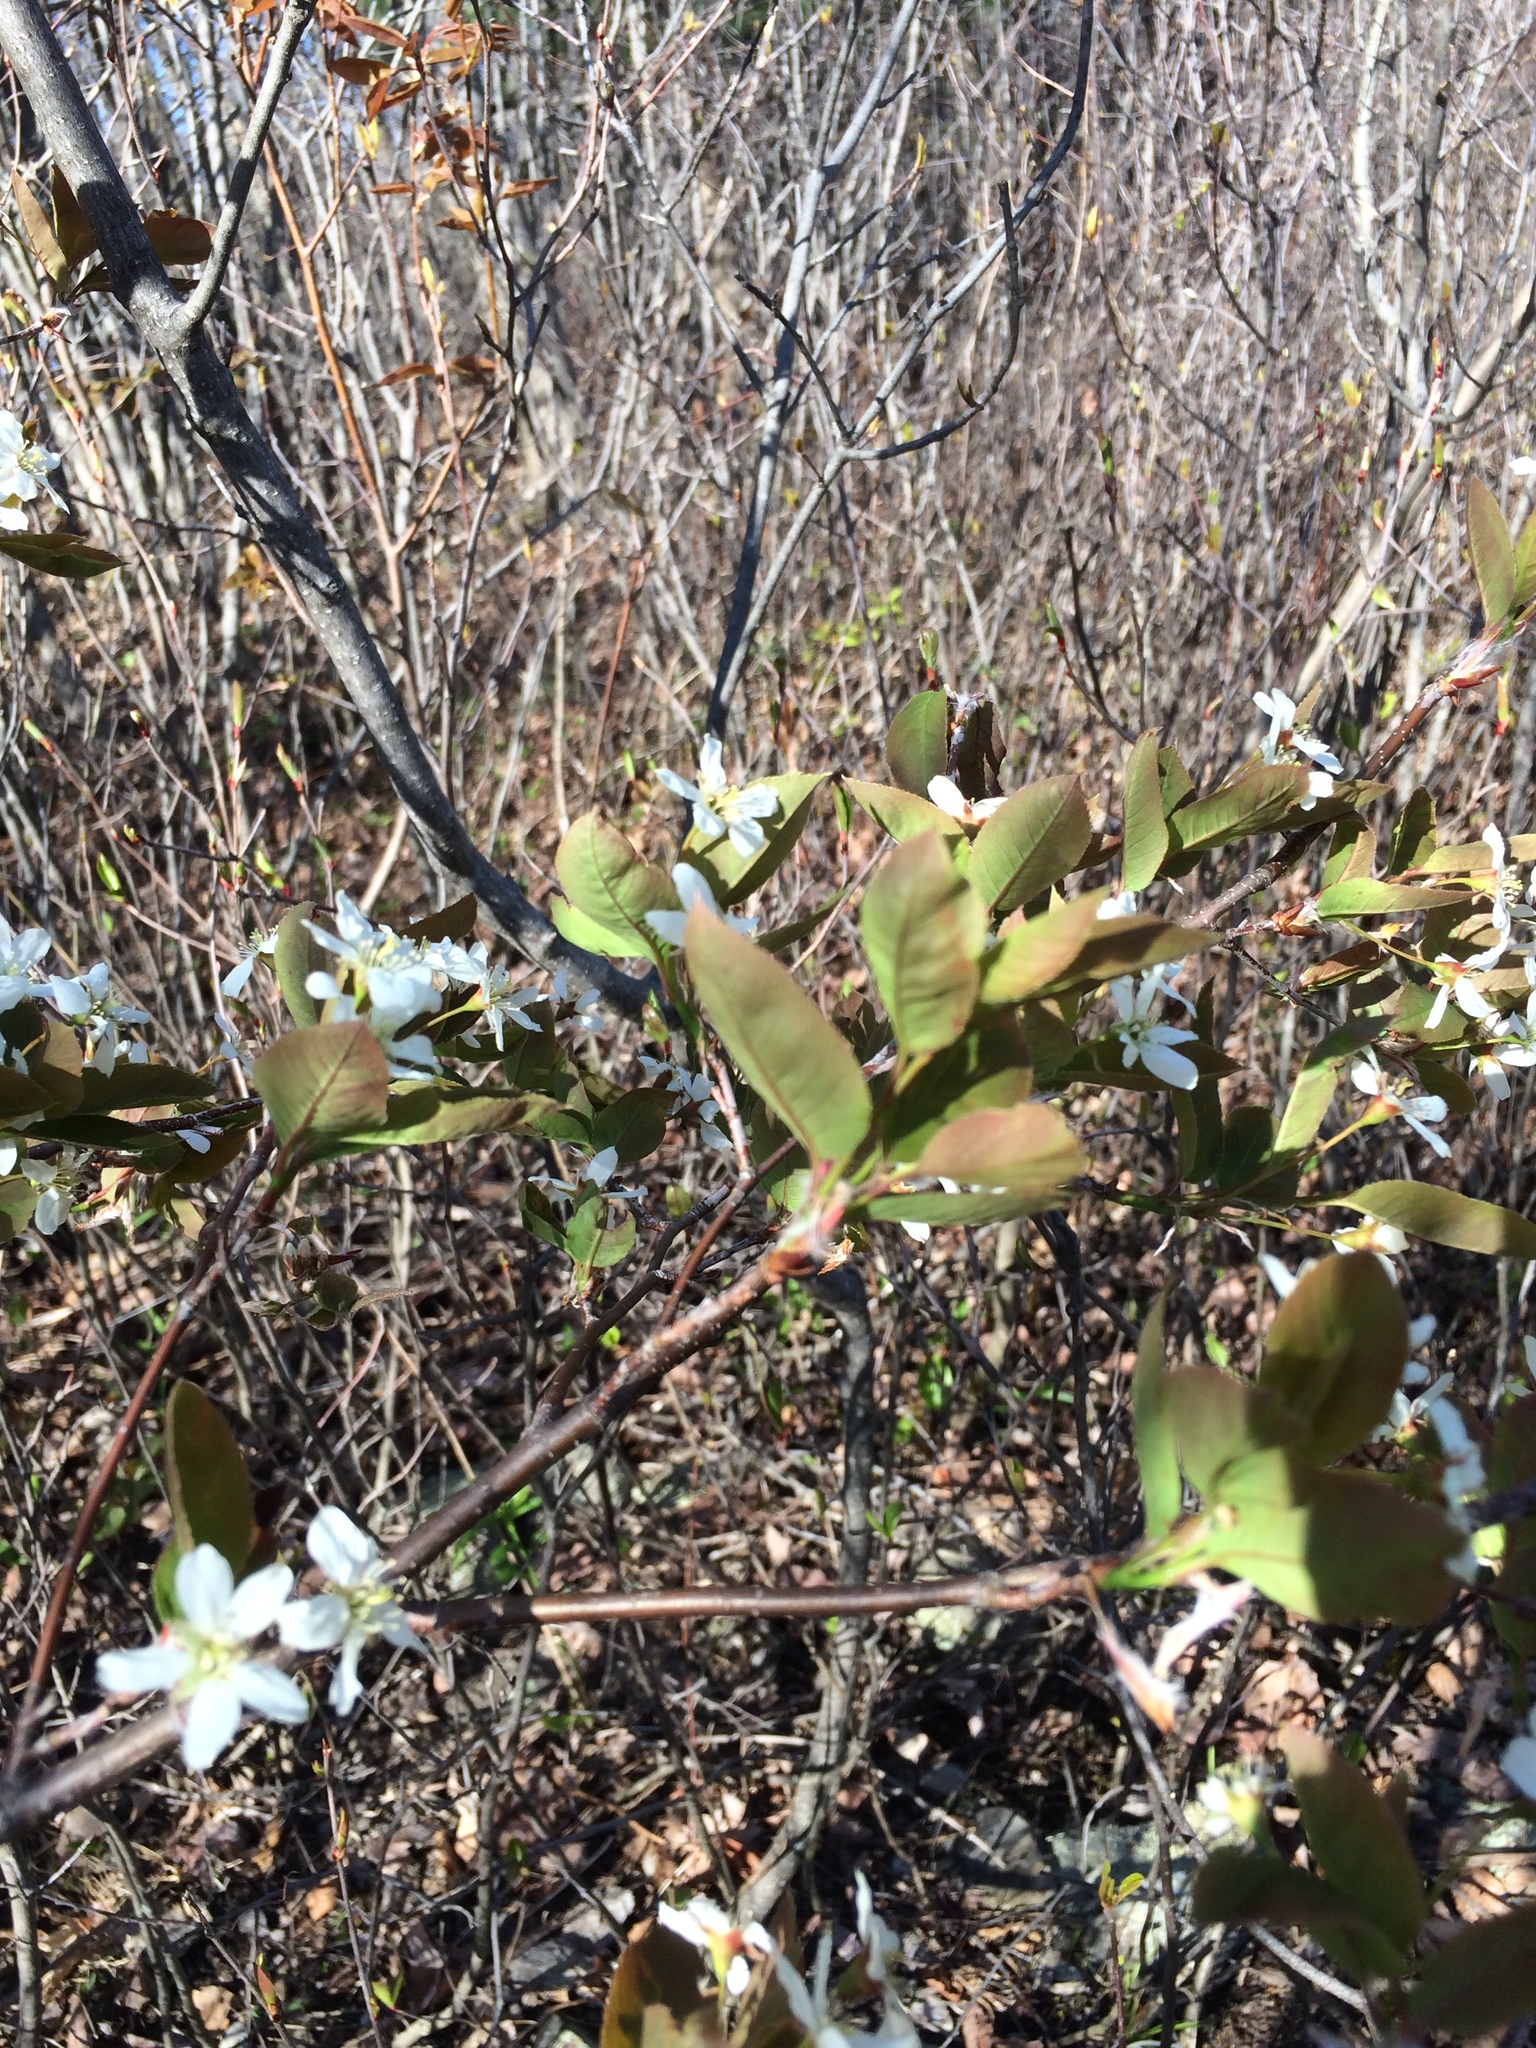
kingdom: Plantae
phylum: Tracheophyta
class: Magnoliopsida
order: Rosales
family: Rosaceae
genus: Amelanchier
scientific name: Amelanchier bartramiana
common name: Mountain serviceberry
